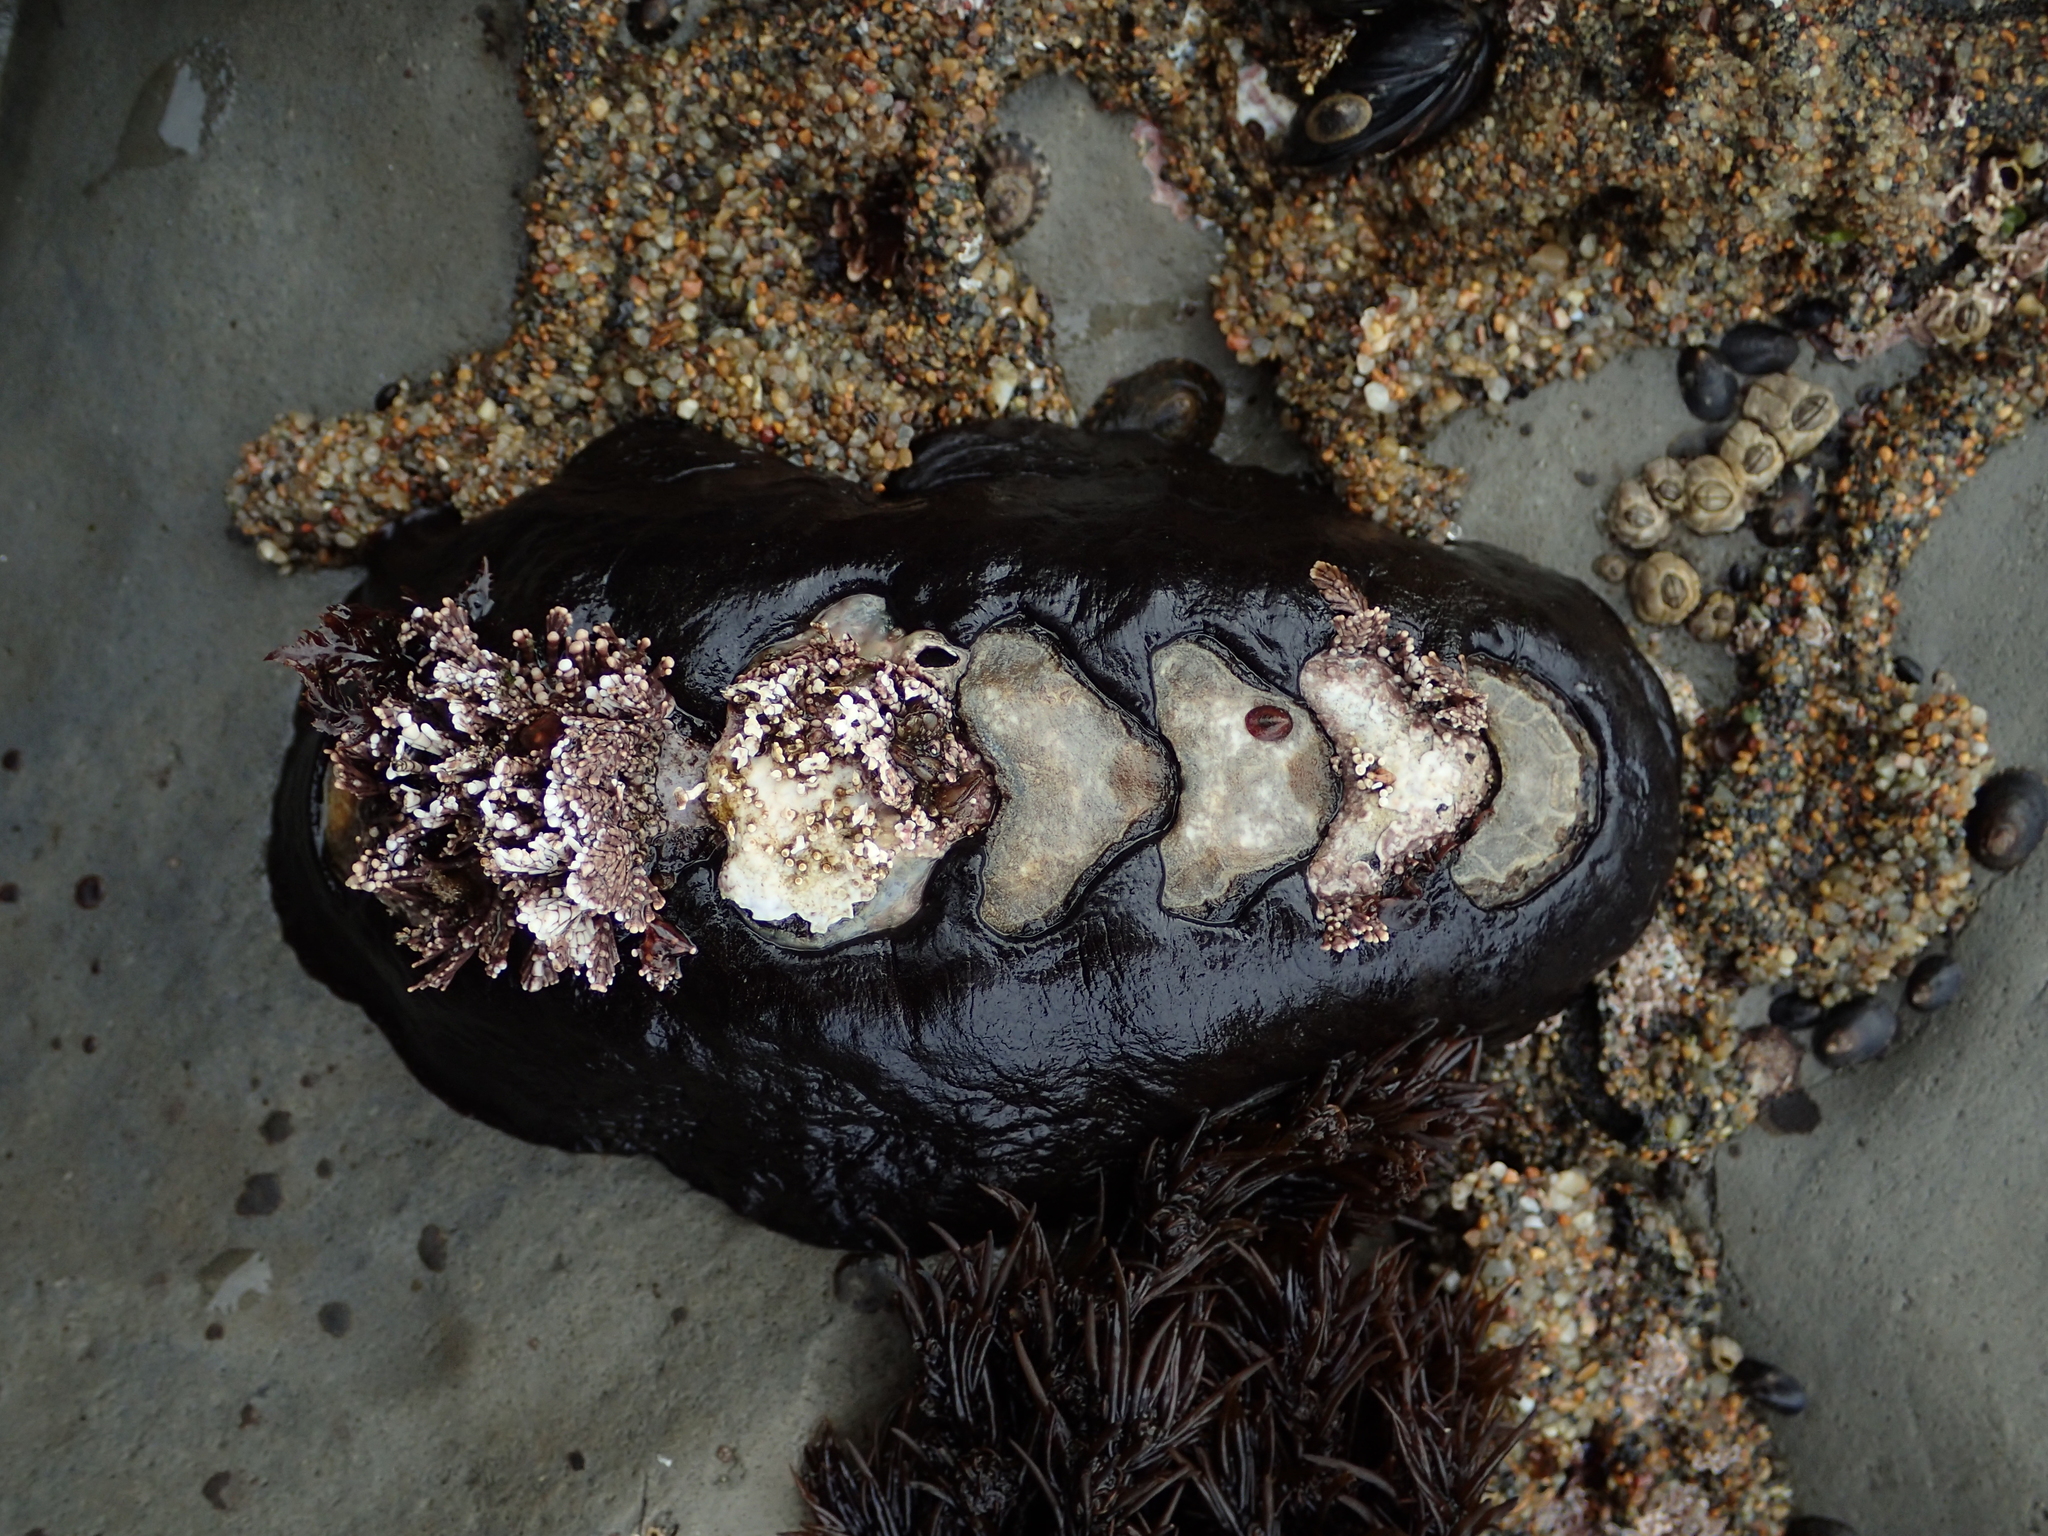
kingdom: Animalia
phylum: Mollusca
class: Polyplacophora
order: Chitonida
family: Mopaliidae
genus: Katharina
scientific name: Katharina tunicata
